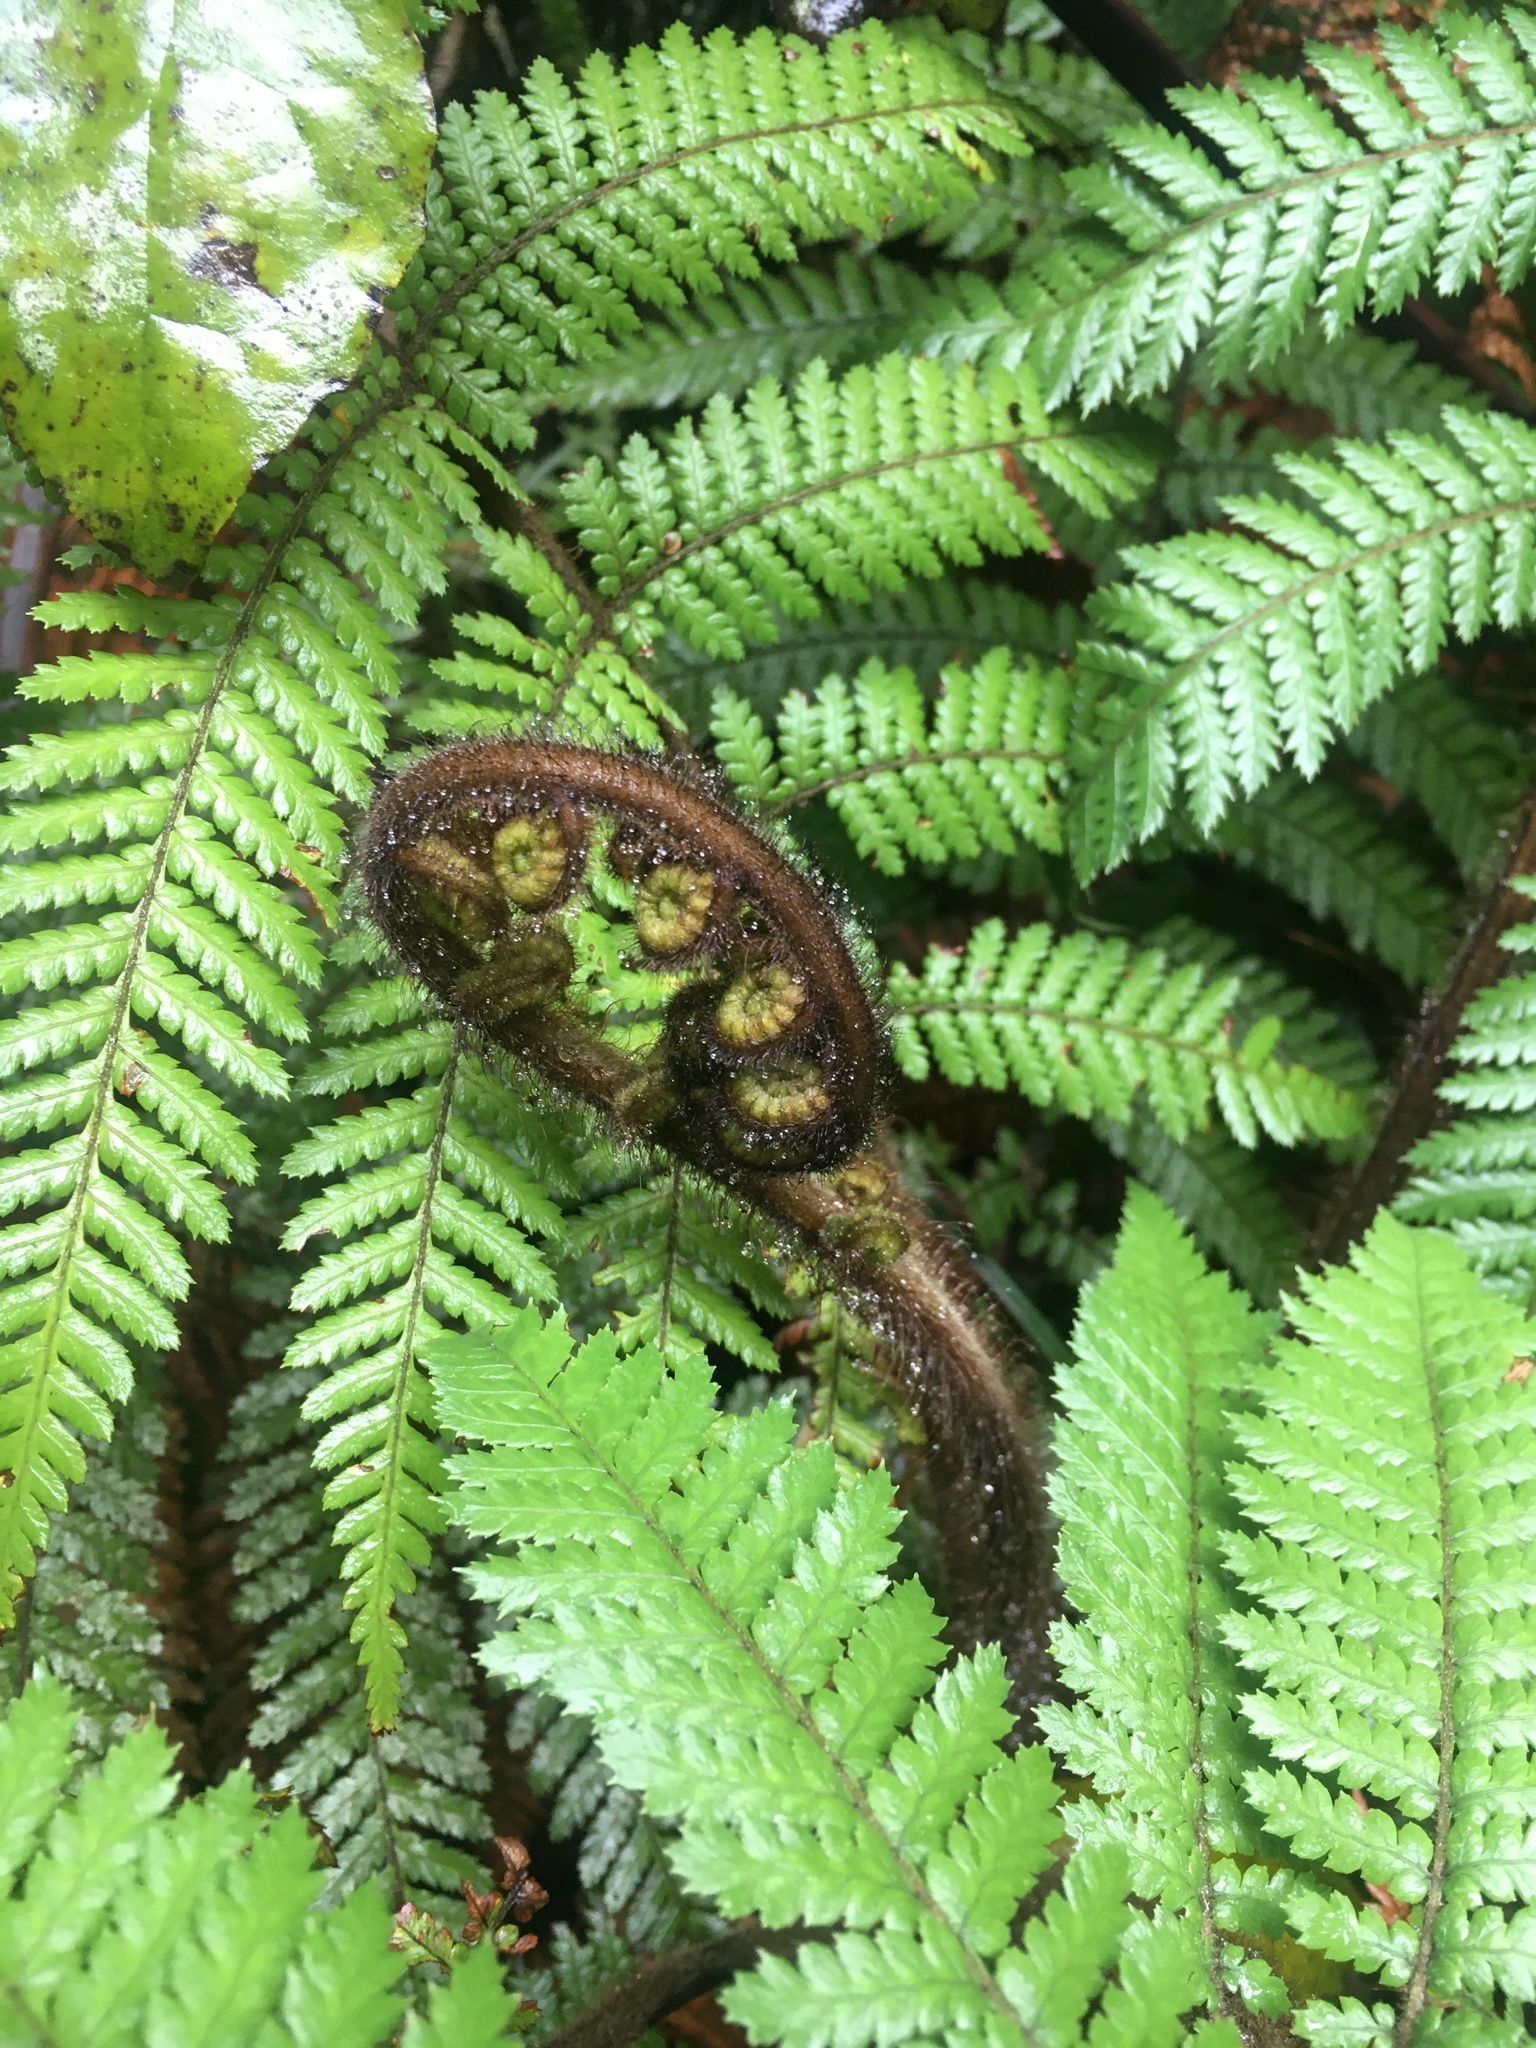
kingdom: Plantae
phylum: Tracheophyta
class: Polypodiopsida
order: Cyatheales
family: Dicksoniaceae
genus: Dicksonia
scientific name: Dicksonia squarrosa
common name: Hard treefern
